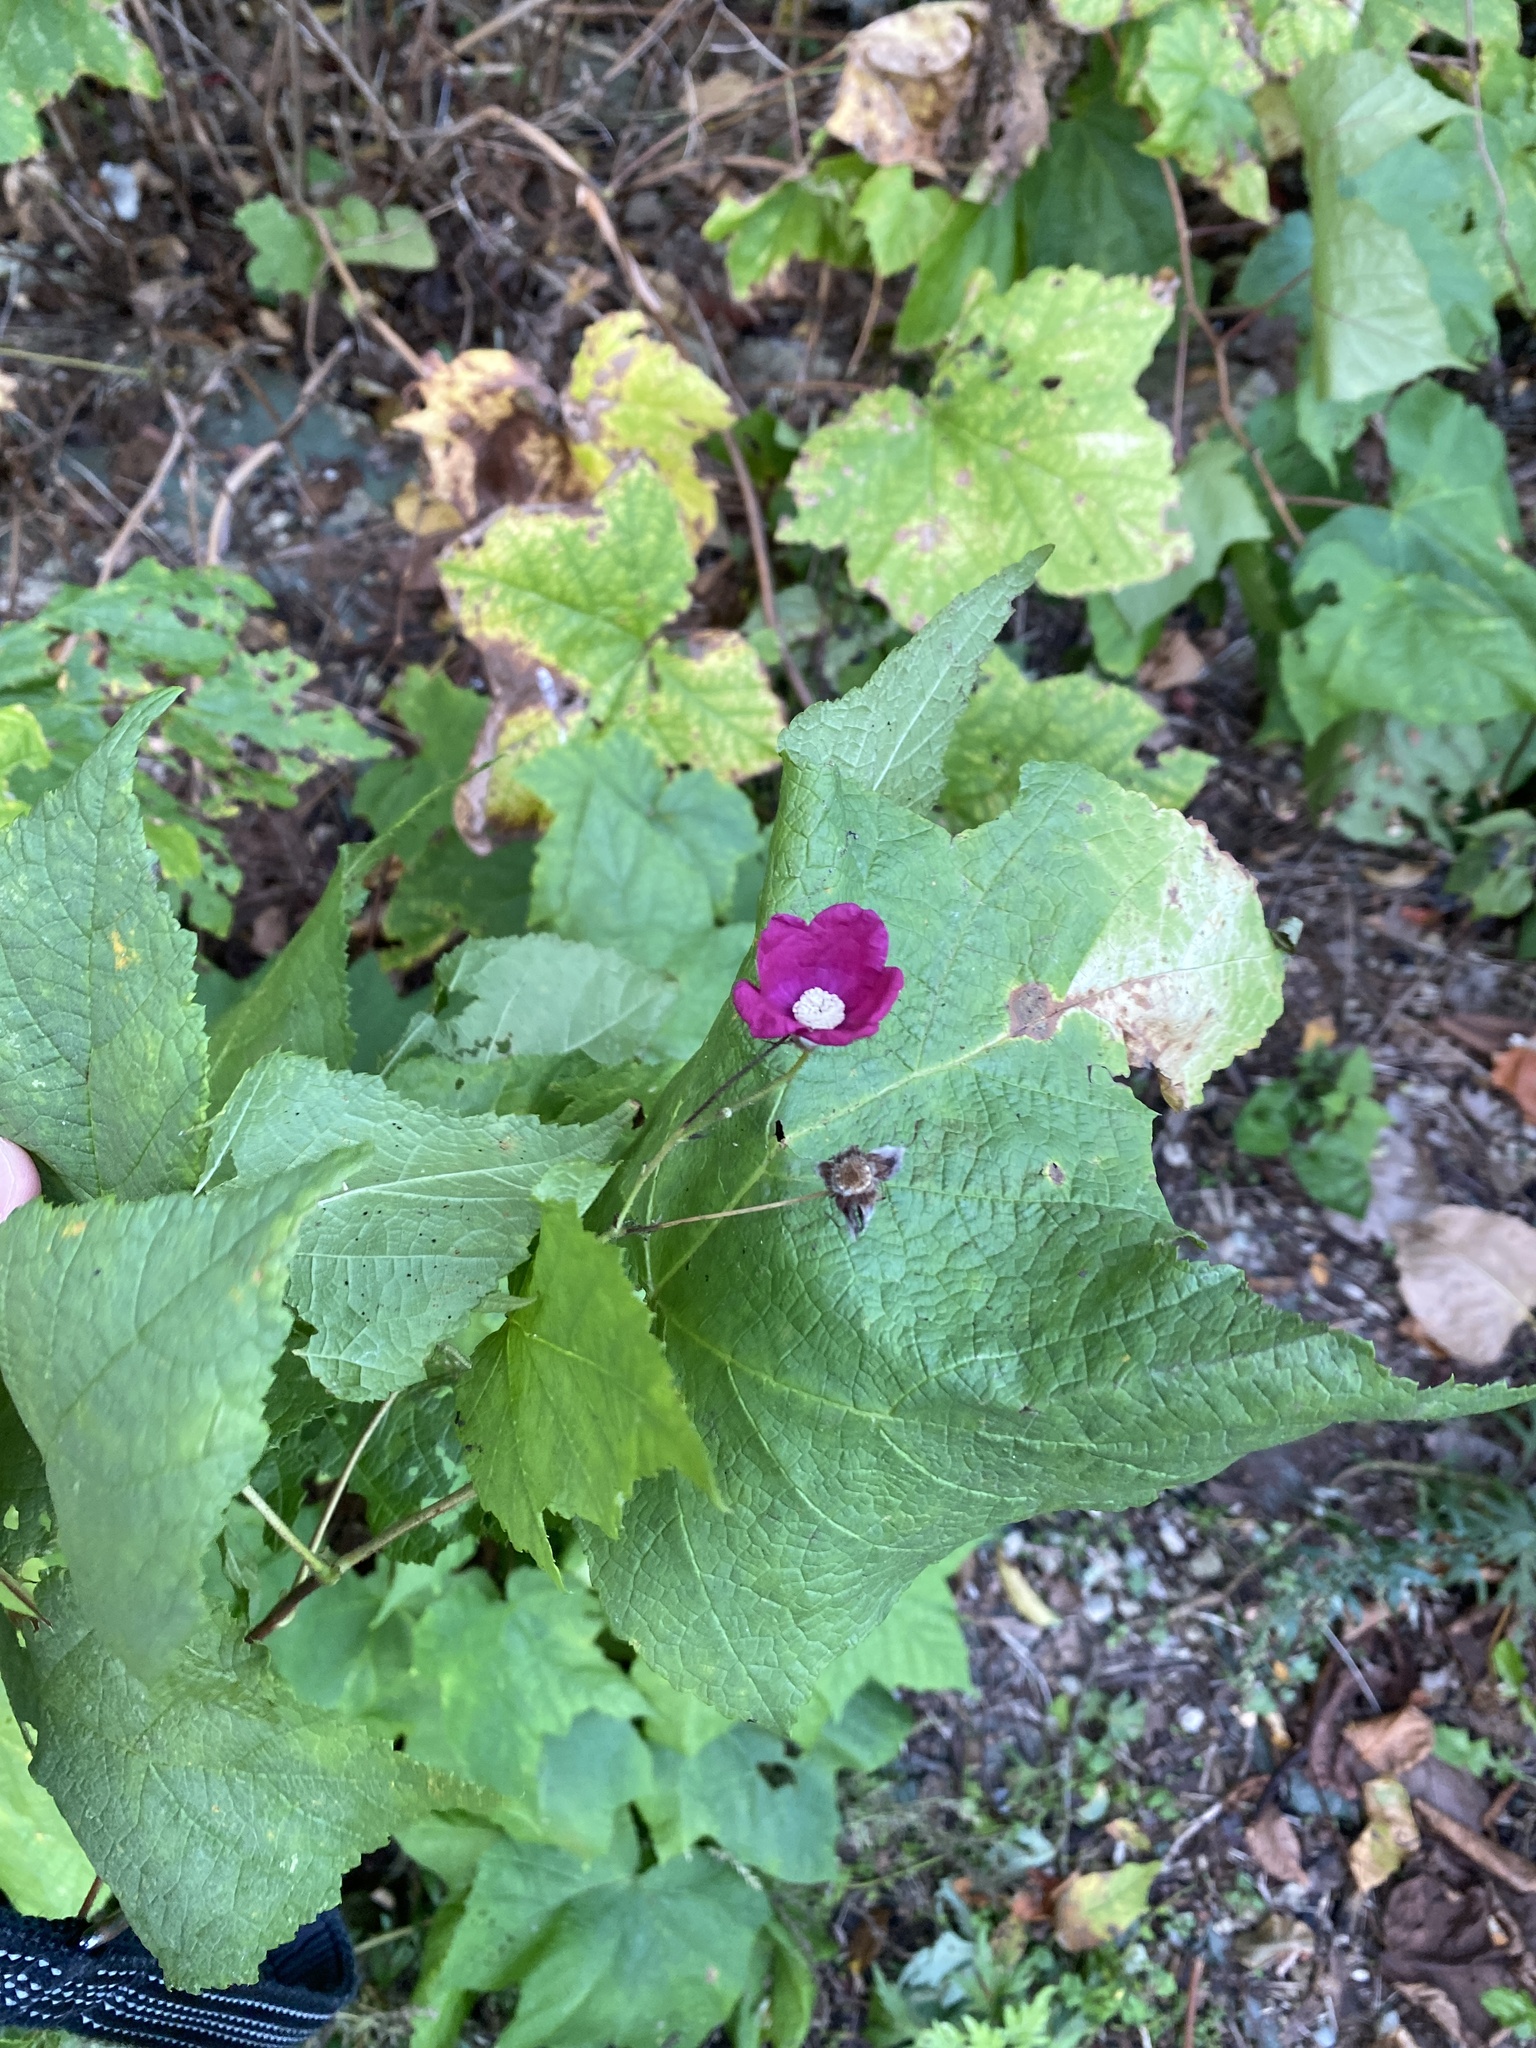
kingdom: Plantae
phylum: Tracheophyta
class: Magnoliopsida
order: Rosales
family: Rosaceae
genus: Rubus
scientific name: Rubus odoratus
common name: Purple-flowered raspberry
